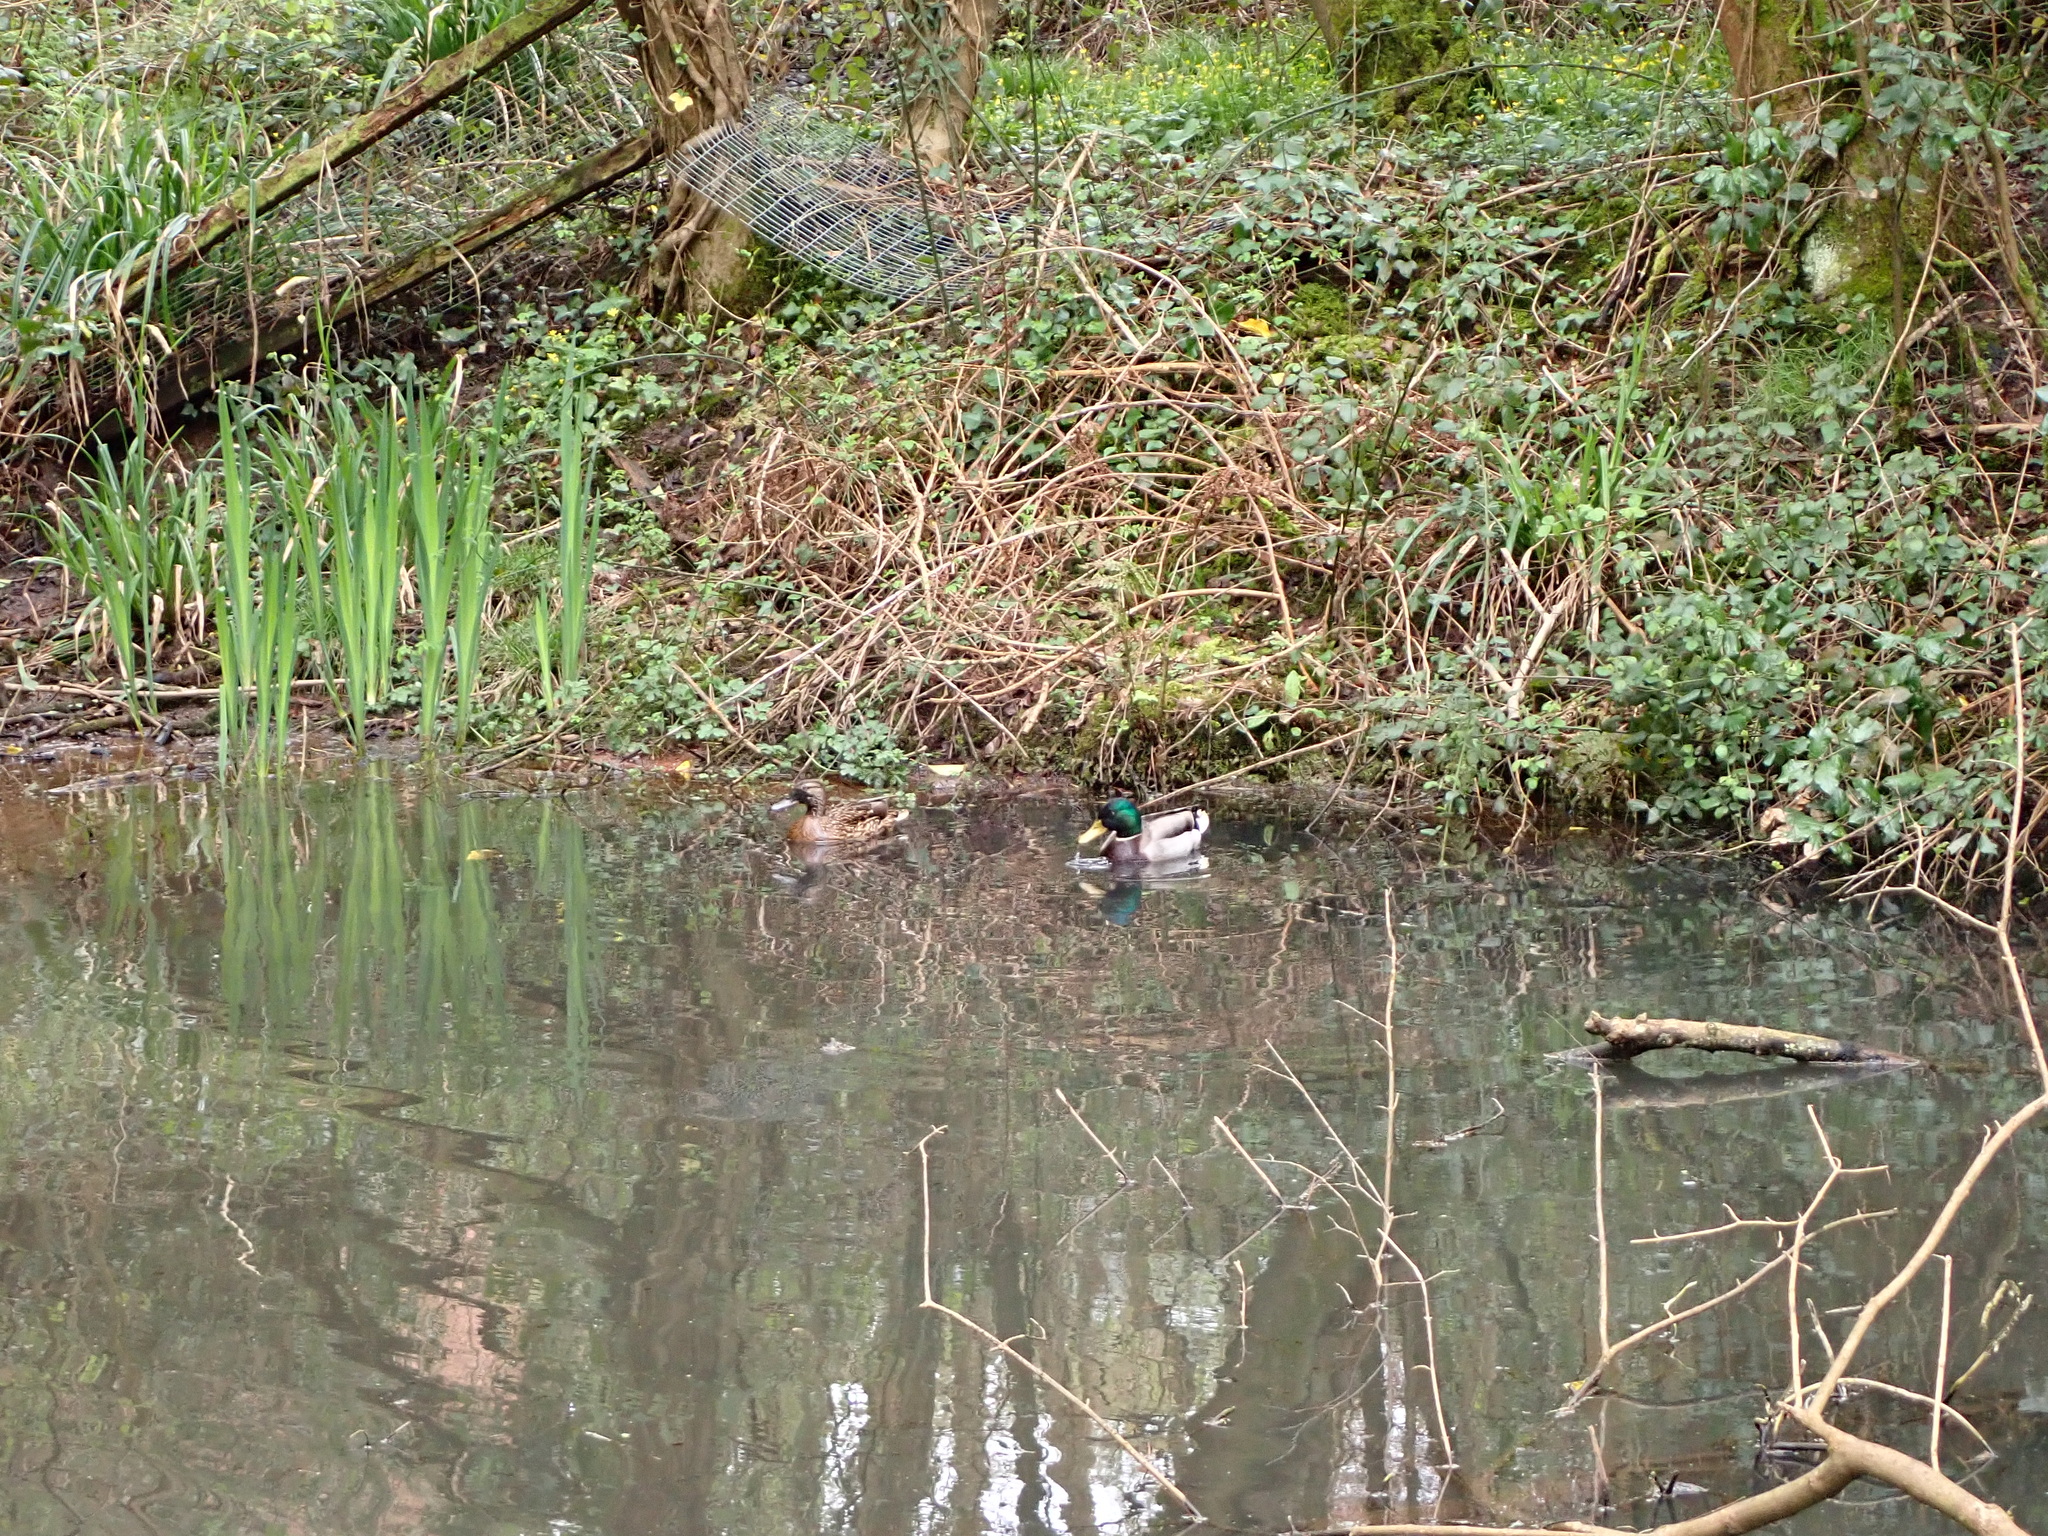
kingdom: Animalia
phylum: Chordata
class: Aves
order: Anseriformes
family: Anatidae
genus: Anas
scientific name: Anas platyrhynchos
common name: Mallard
